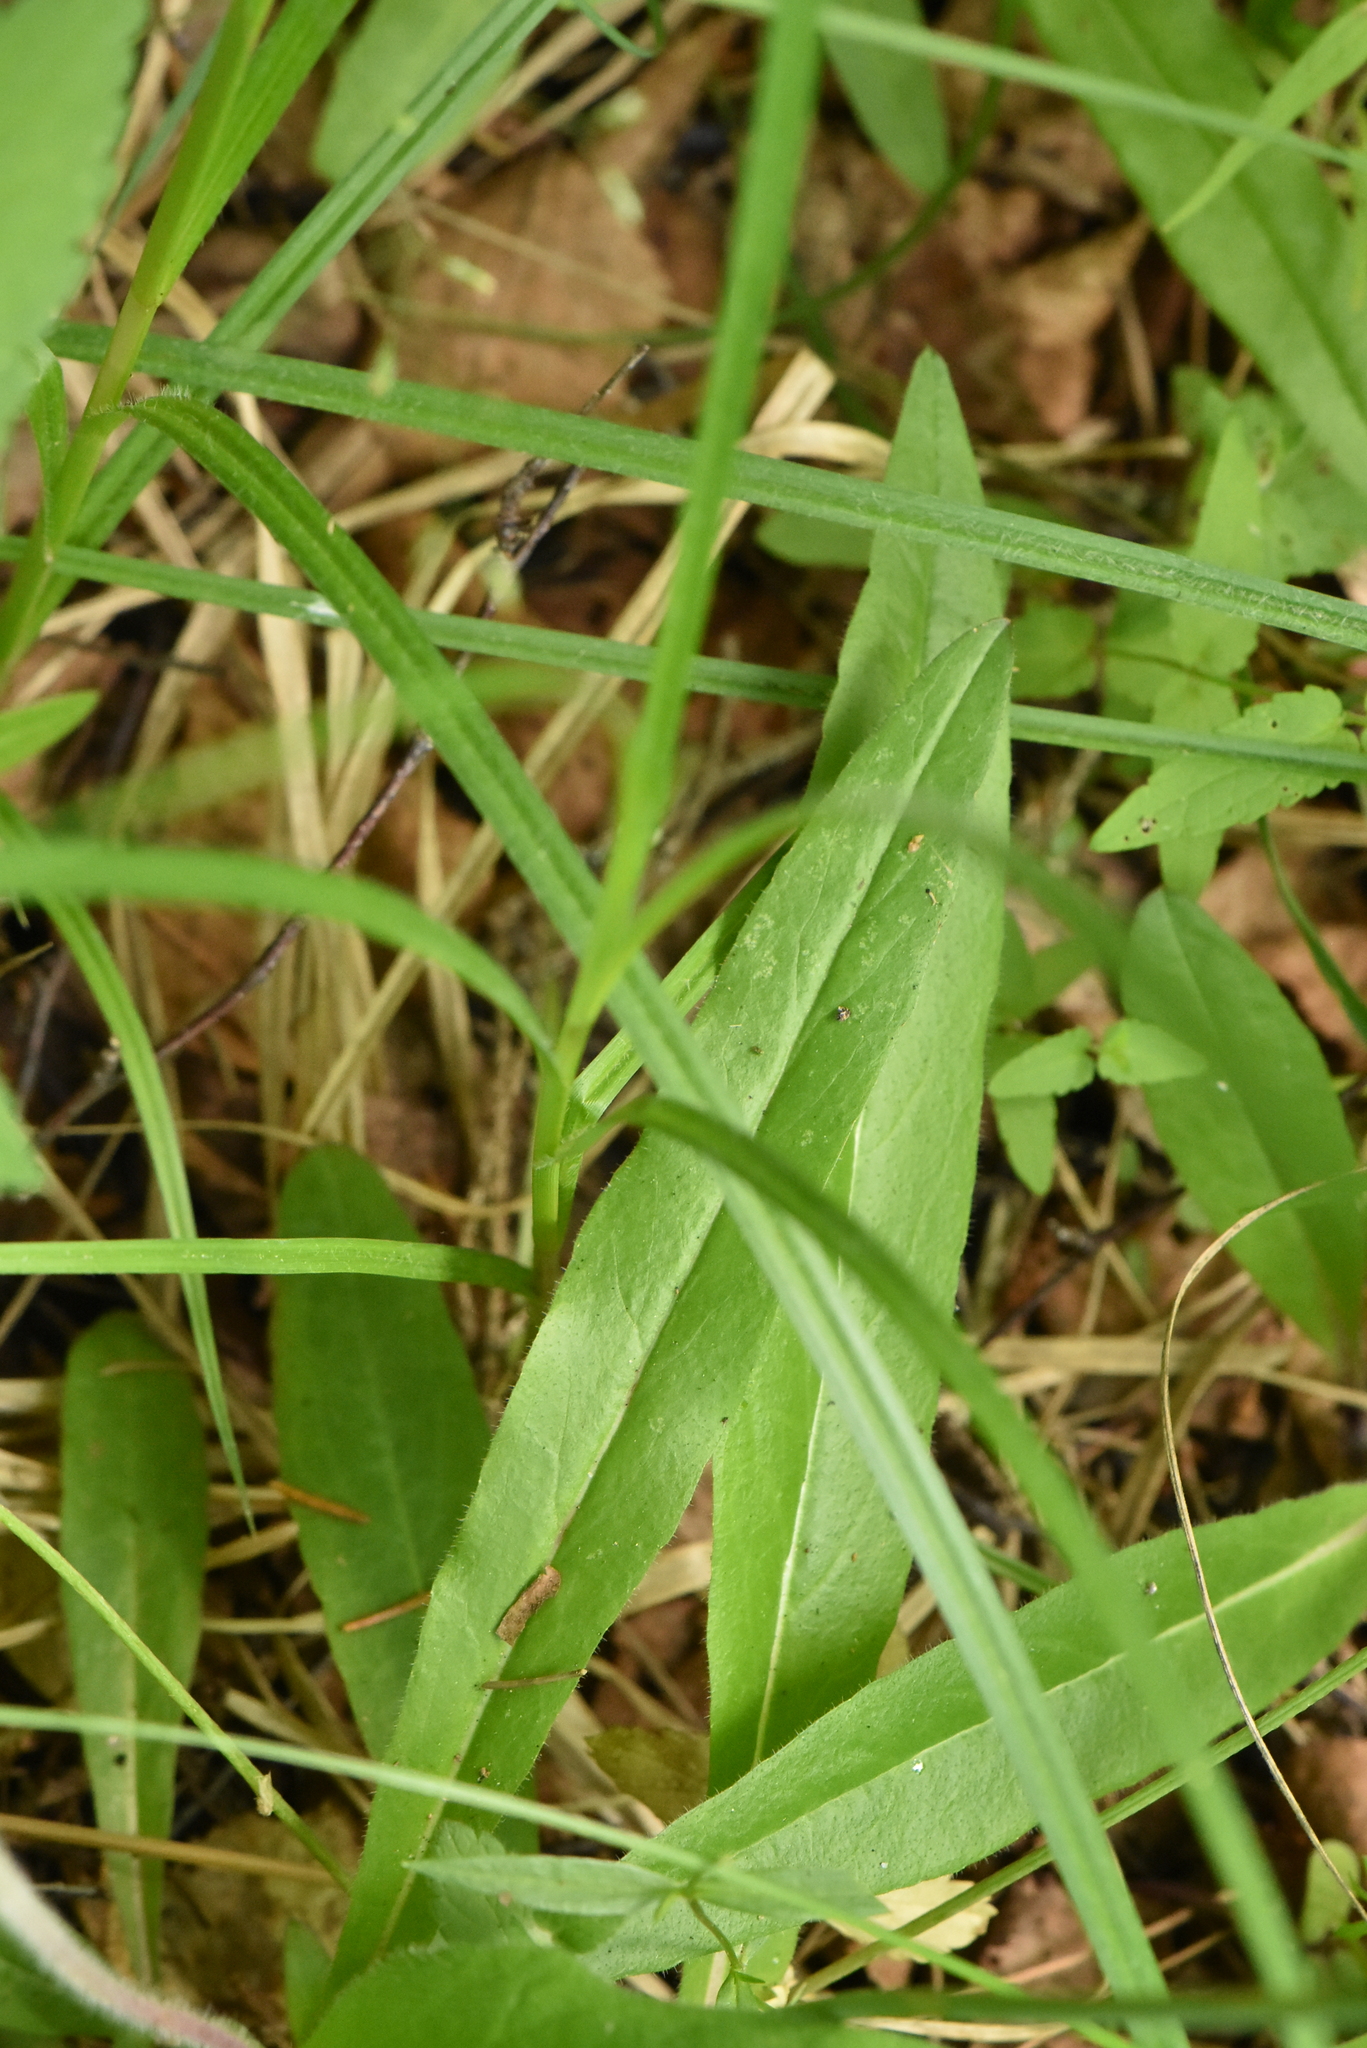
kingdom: Plantae
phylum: Tracheophyta
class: Magnoliopsida
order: Asterales
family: Asteraceae
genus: Pilosella
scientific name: Pilosella onegensis
